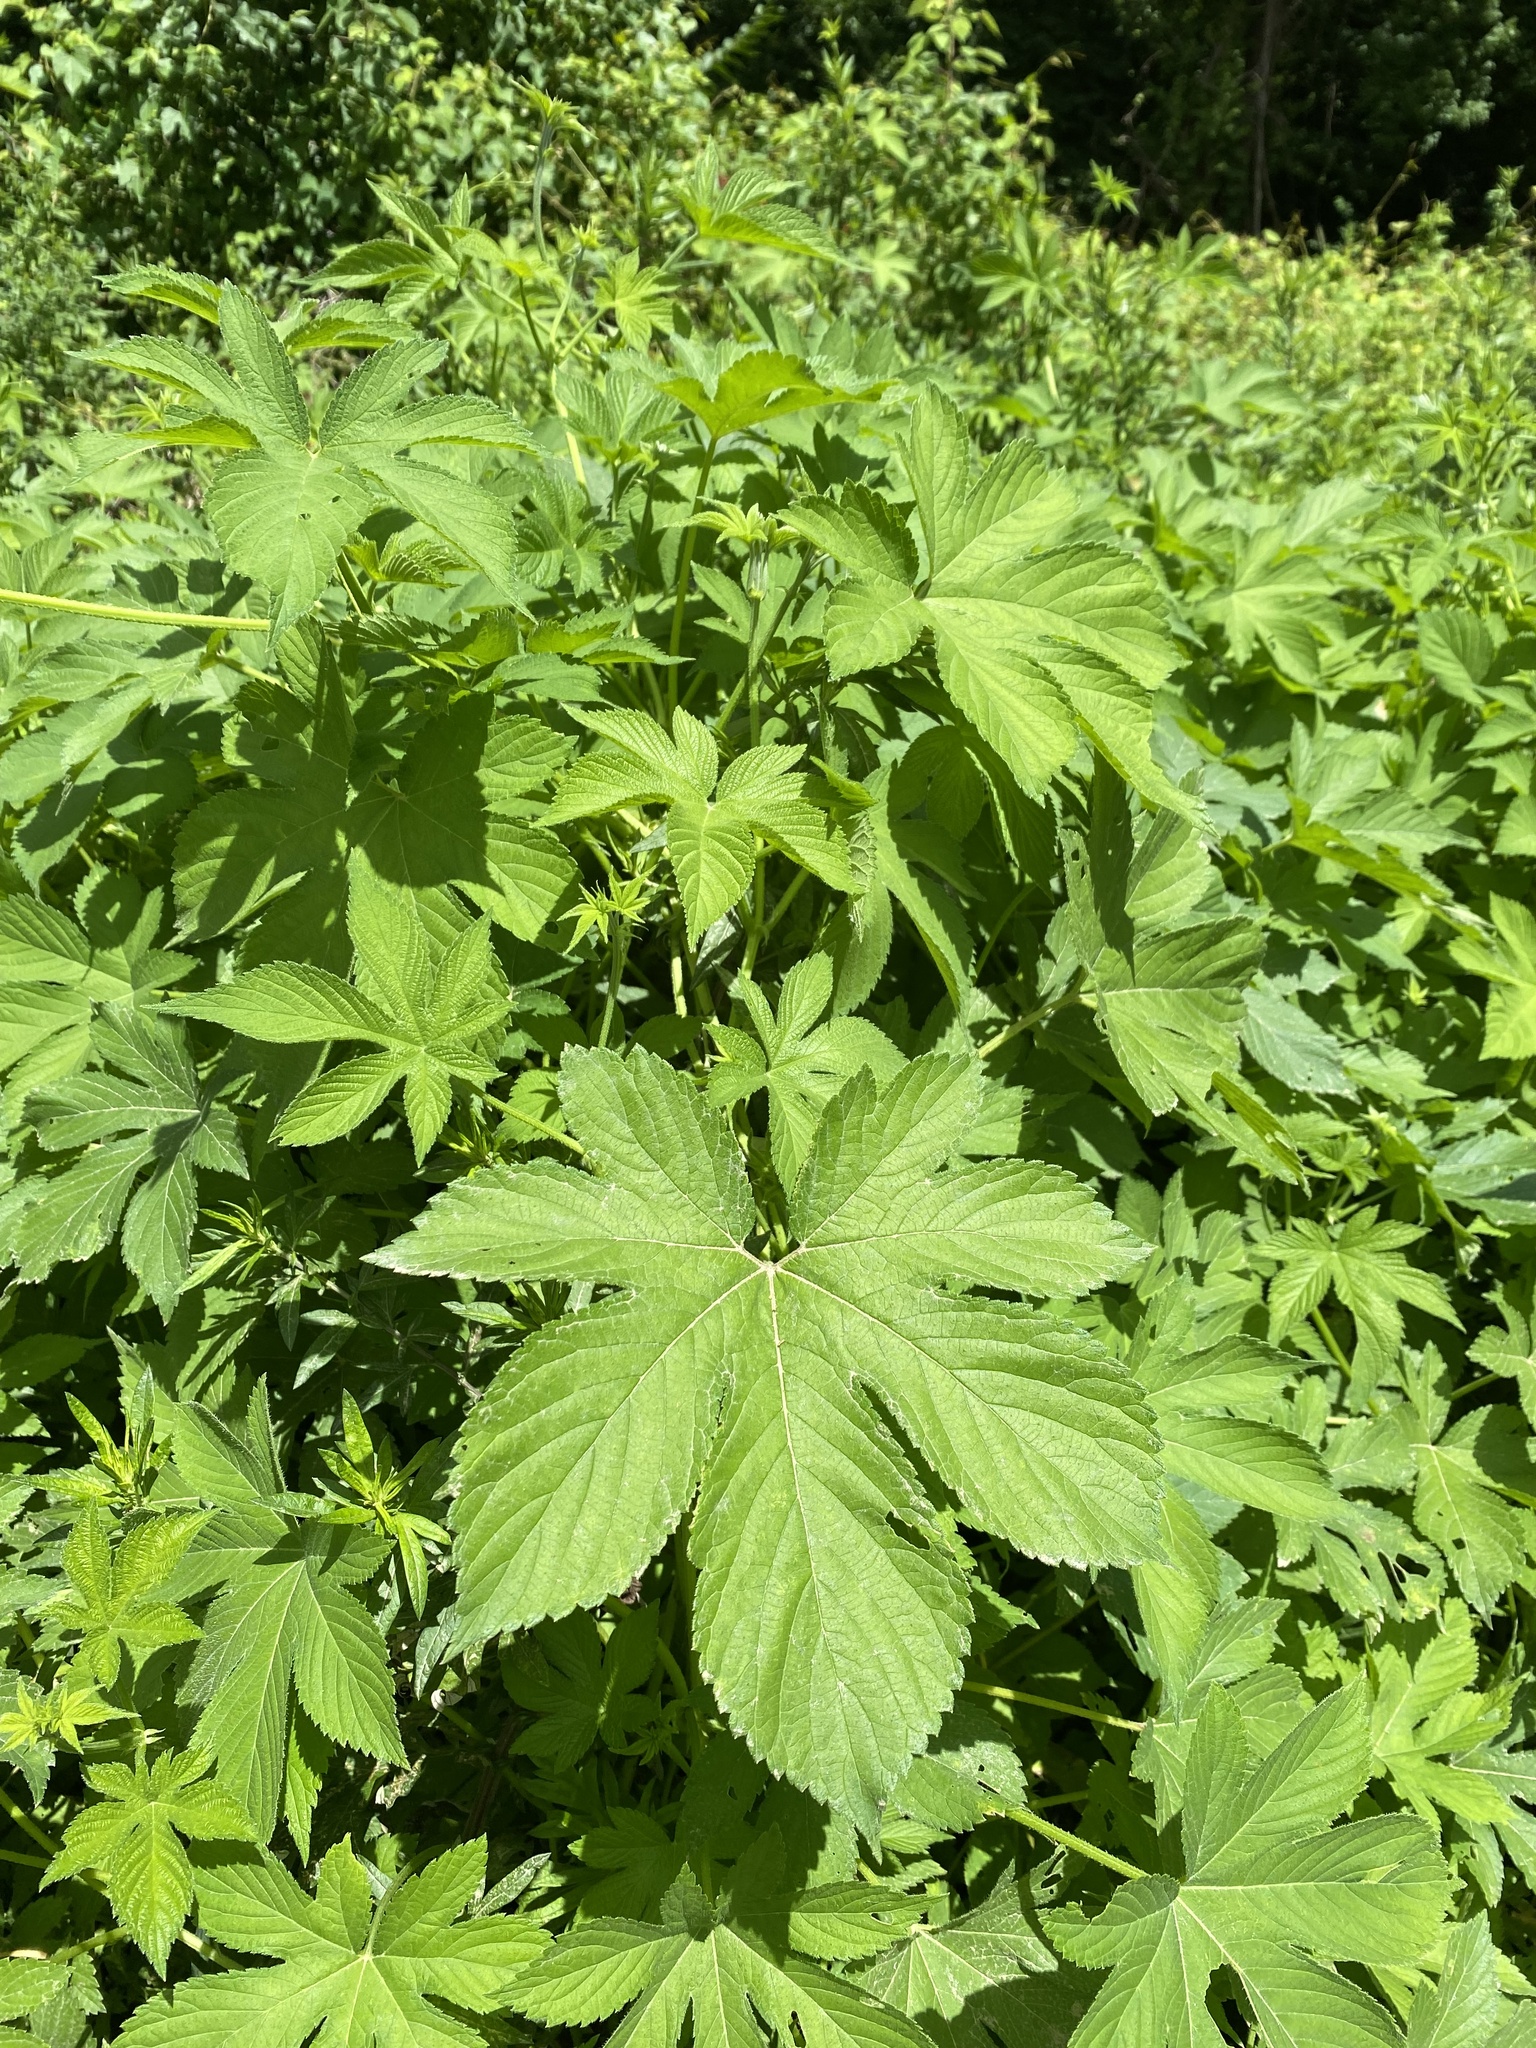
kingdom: Plantae
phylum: Tracheophyta
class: Magnoliopsida
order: Rosales
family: Cannabaceae
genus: Humulus
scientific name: Humulus scandens
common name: Japanese hop
